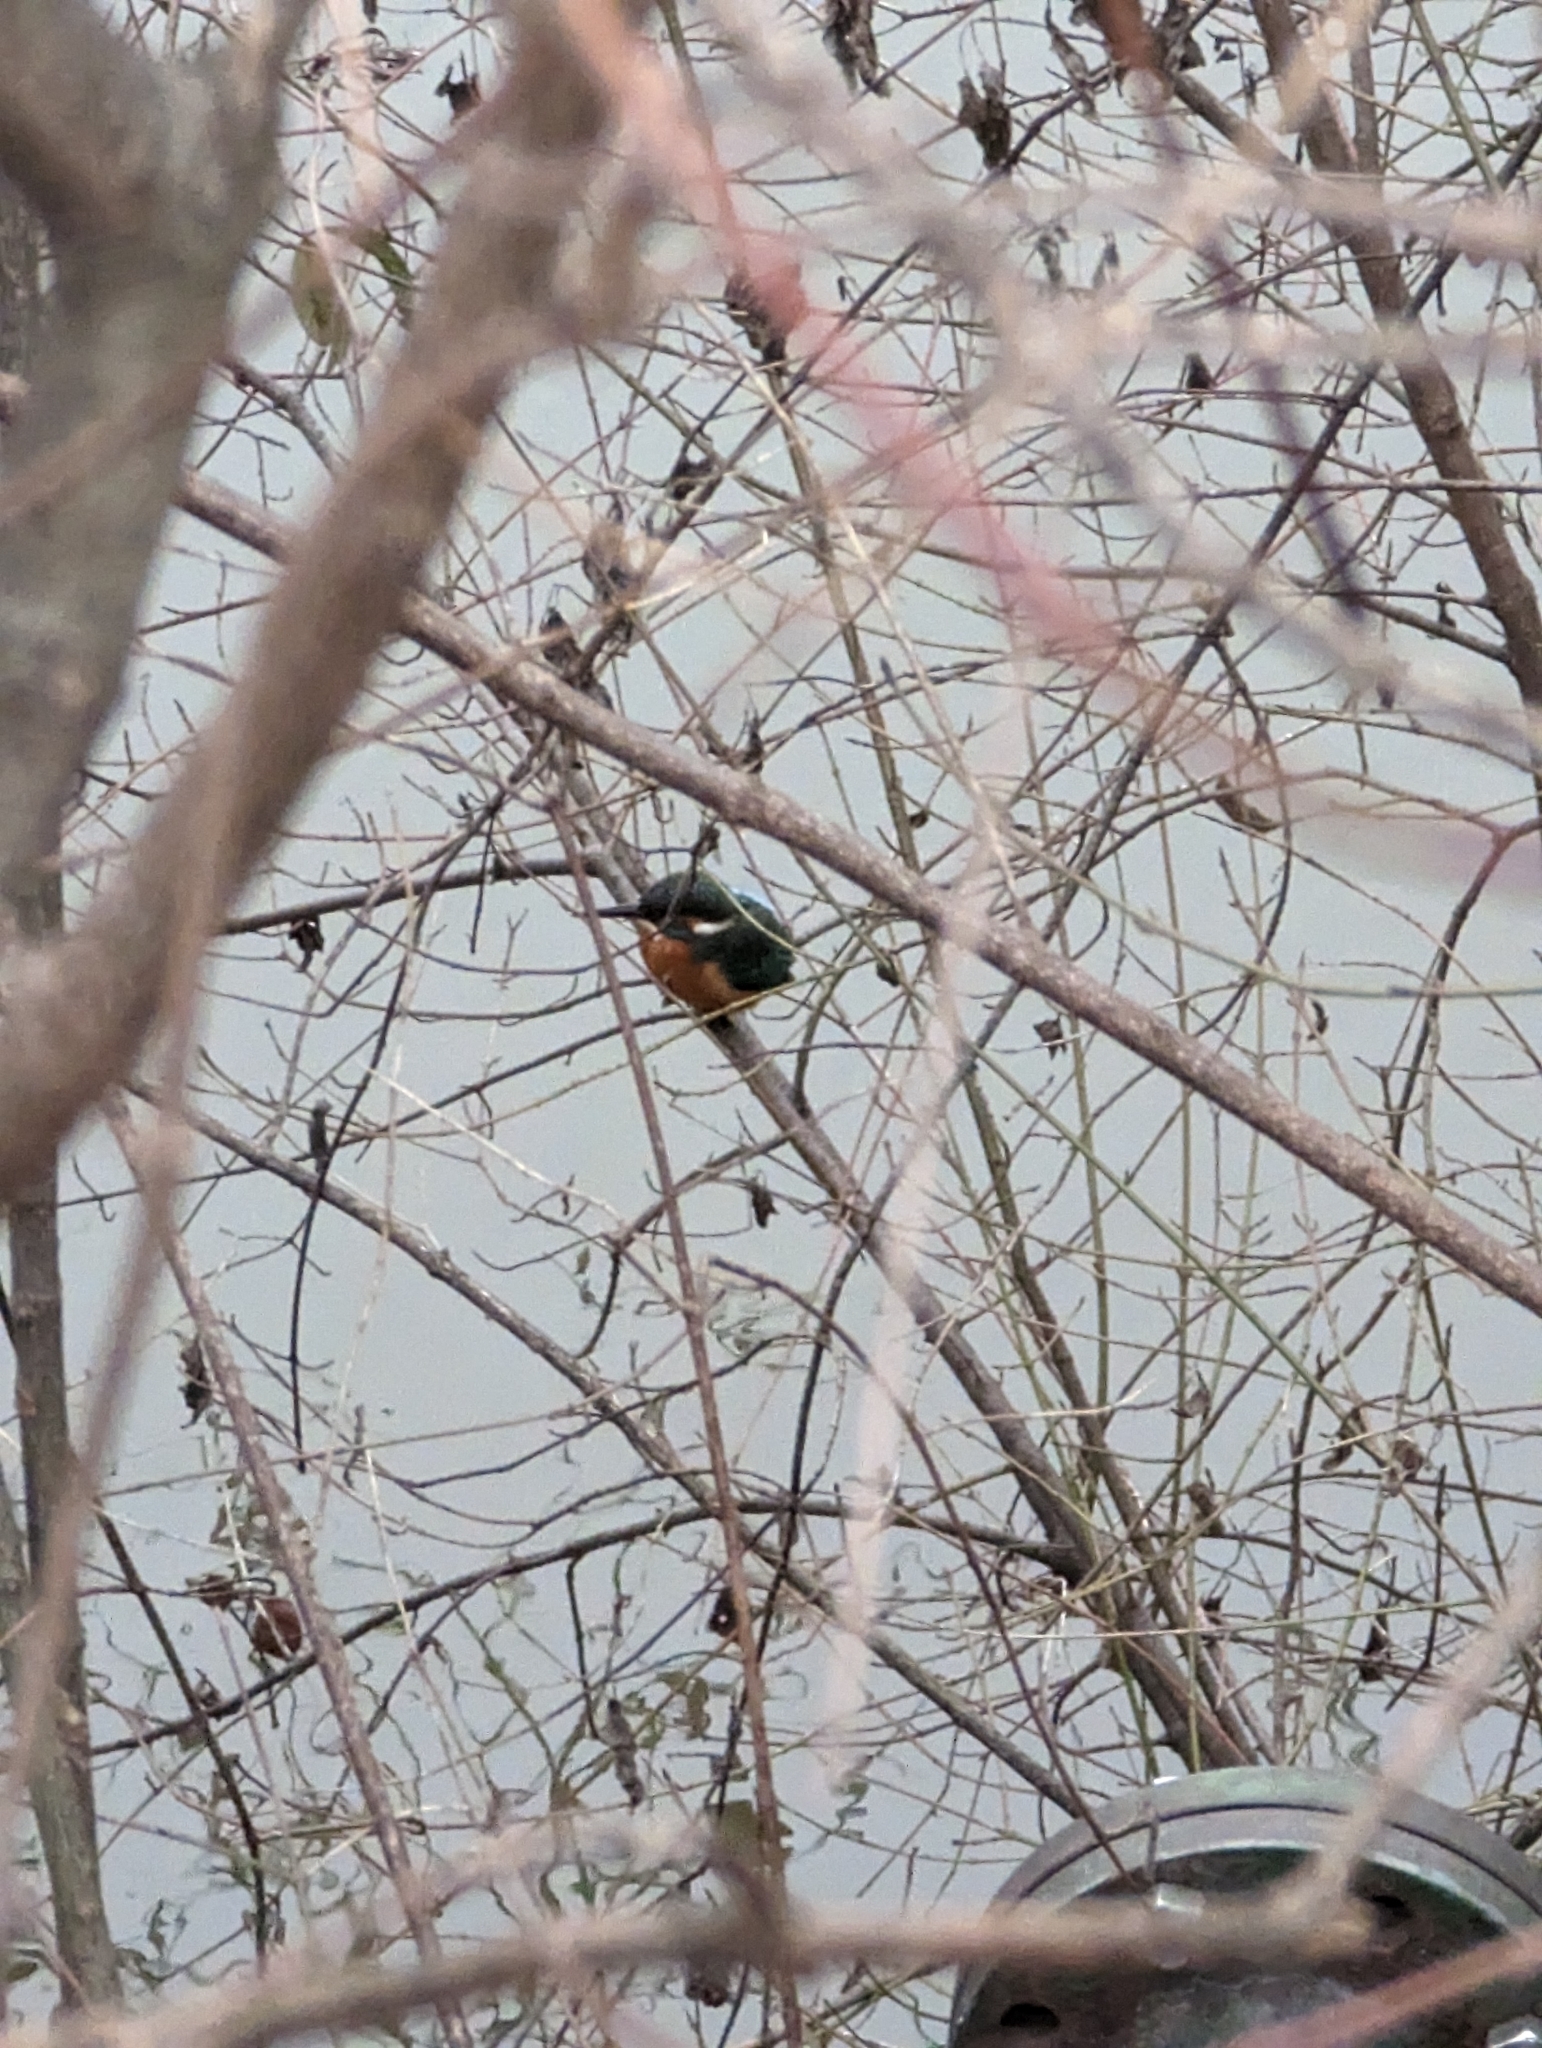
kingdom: Animalia
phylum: Chordata
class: Aves
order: Coraciiformes
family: Alcedinidae
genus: Alcedo
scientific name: Alcedo atthis
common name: Common kingfisher
